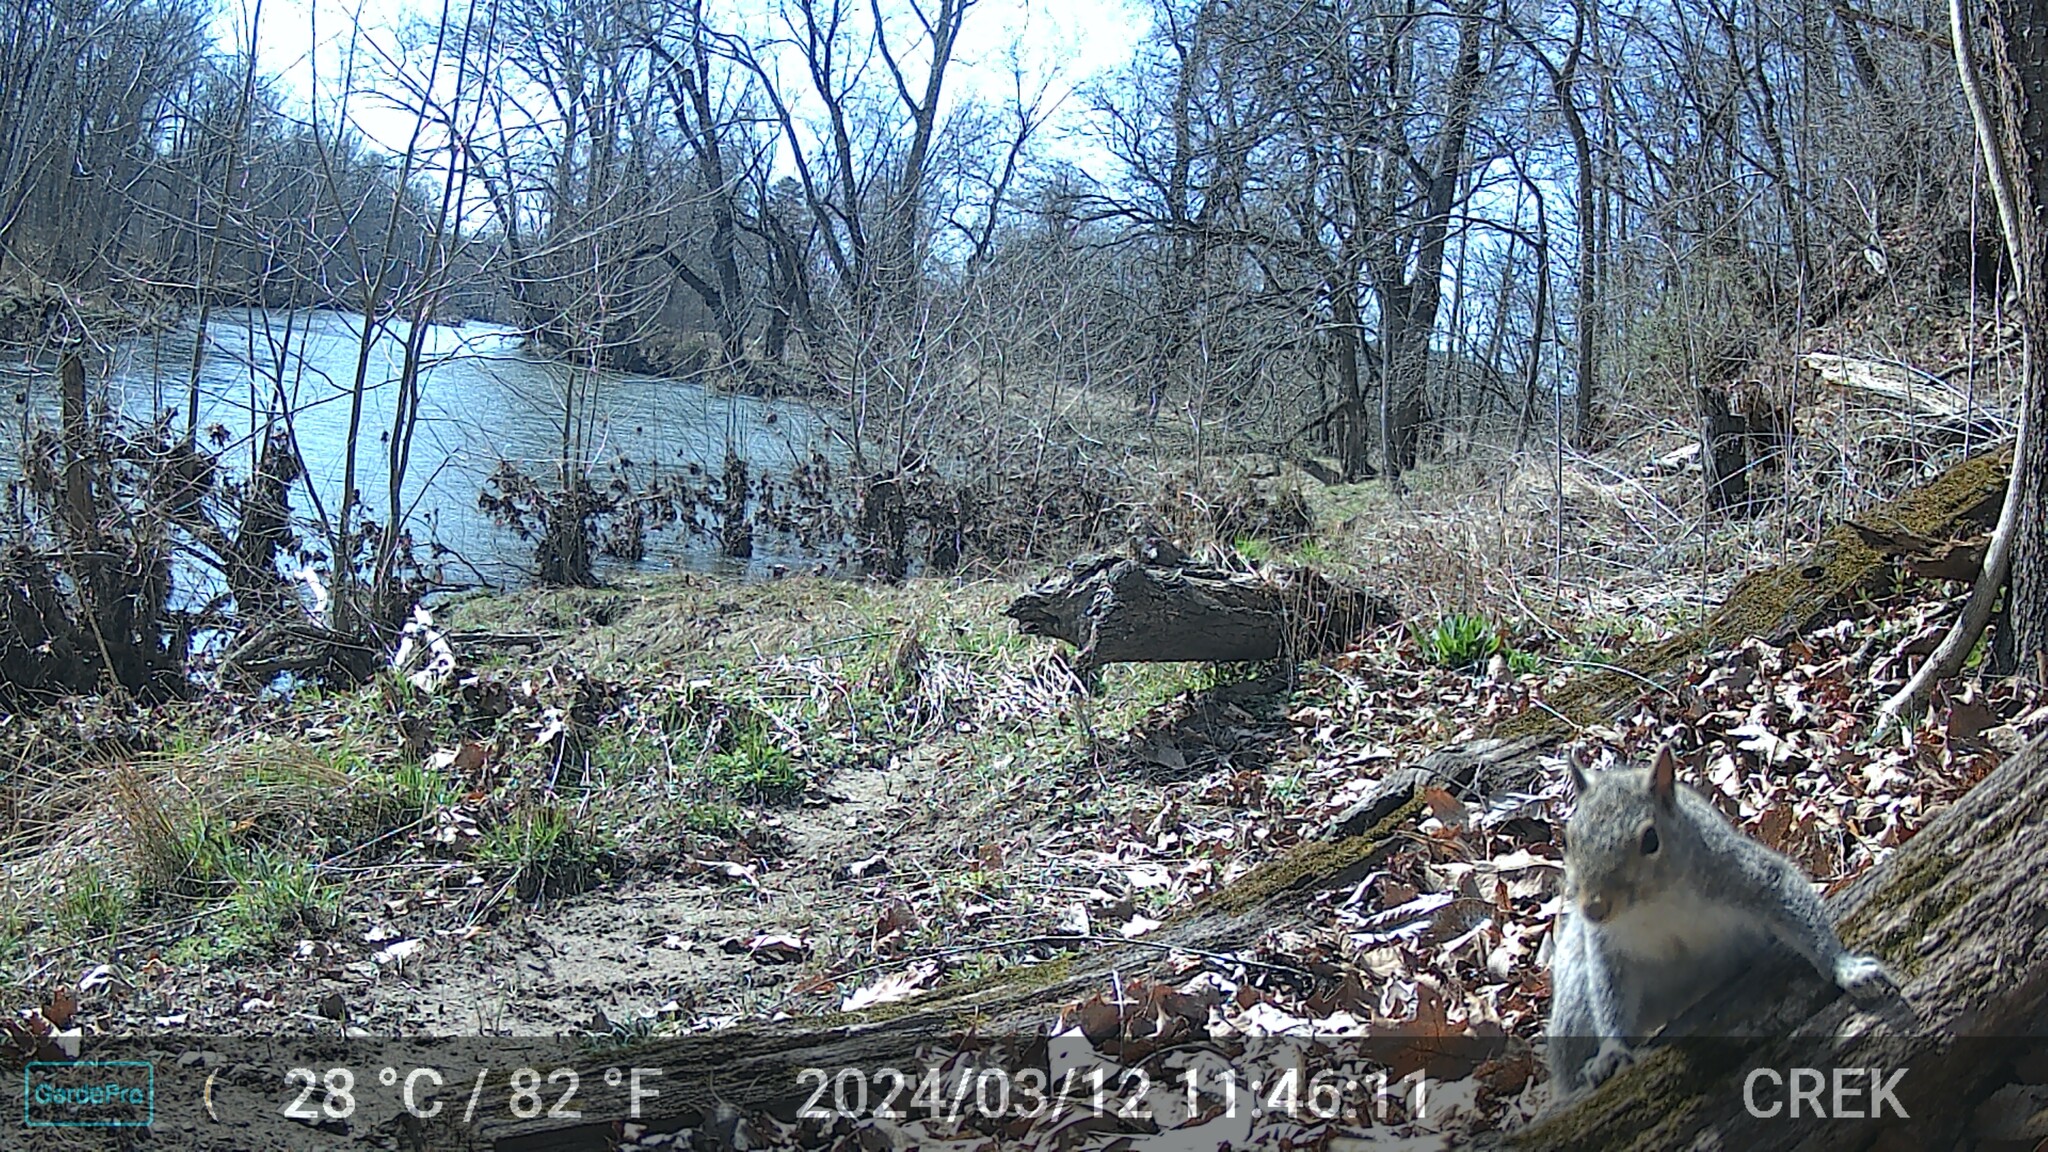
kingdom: Animalia
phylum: Chordata
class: Mammalia
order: Rodentia
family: Sciuridae
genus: Sciurus
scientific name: Sciurus carolinensis
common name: Eastern gray squirrel
